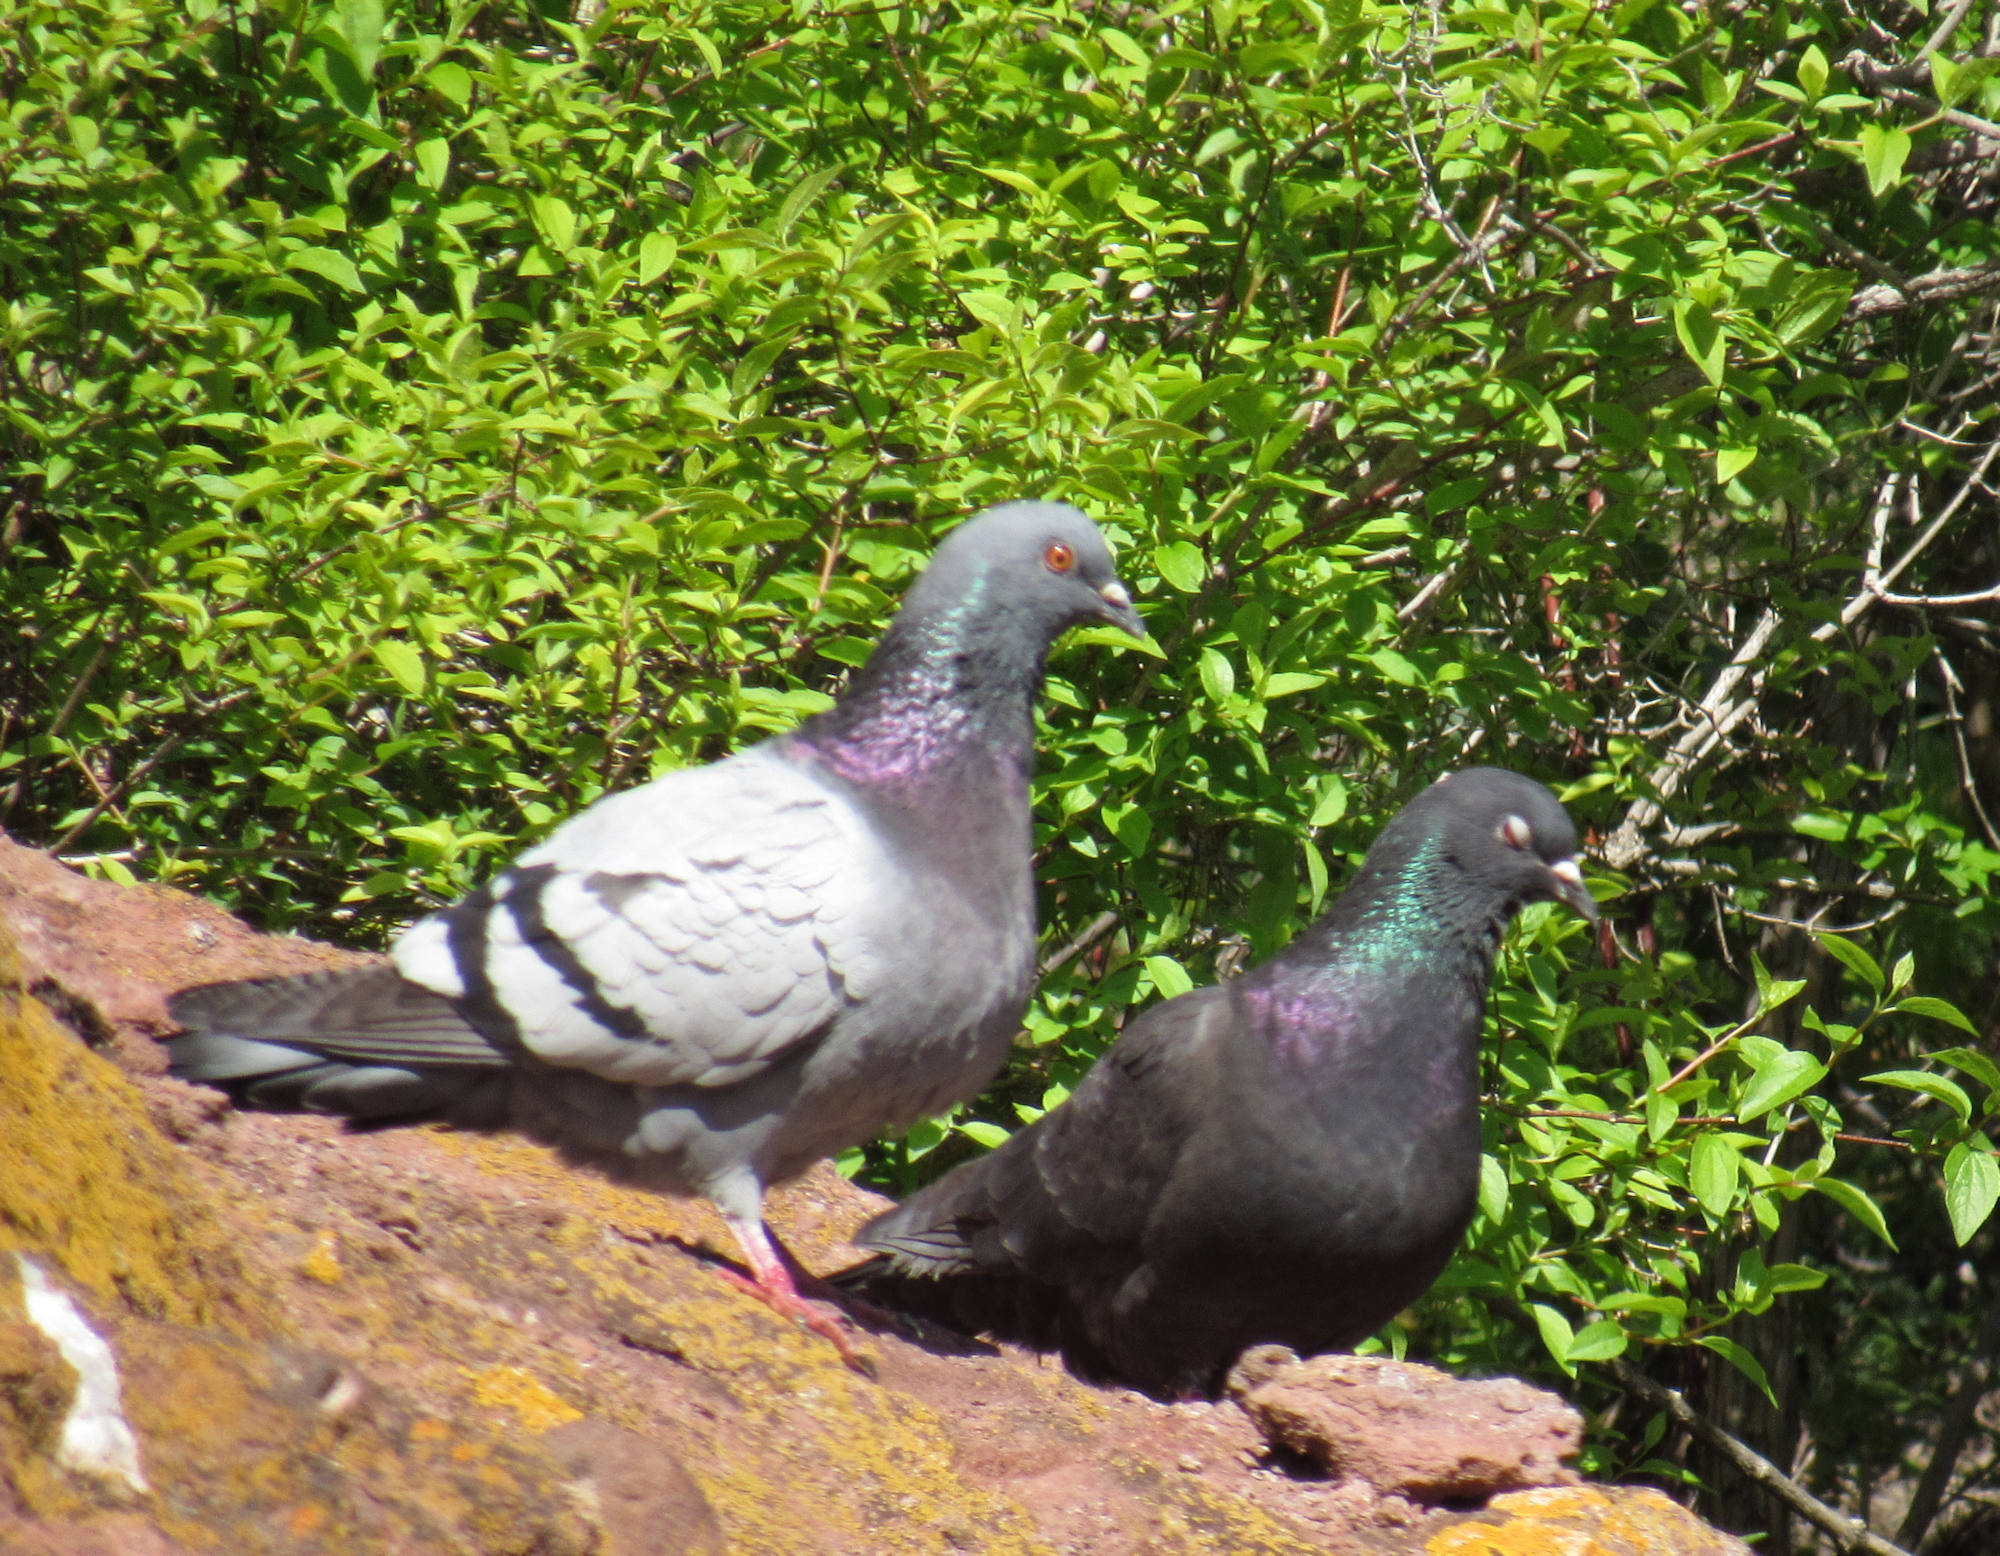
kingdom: Animalia
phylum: Chordata
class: Aves
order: Columbiformes
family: Columbidae
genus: Columba
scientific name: Columba livia
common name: Rock pigeon
